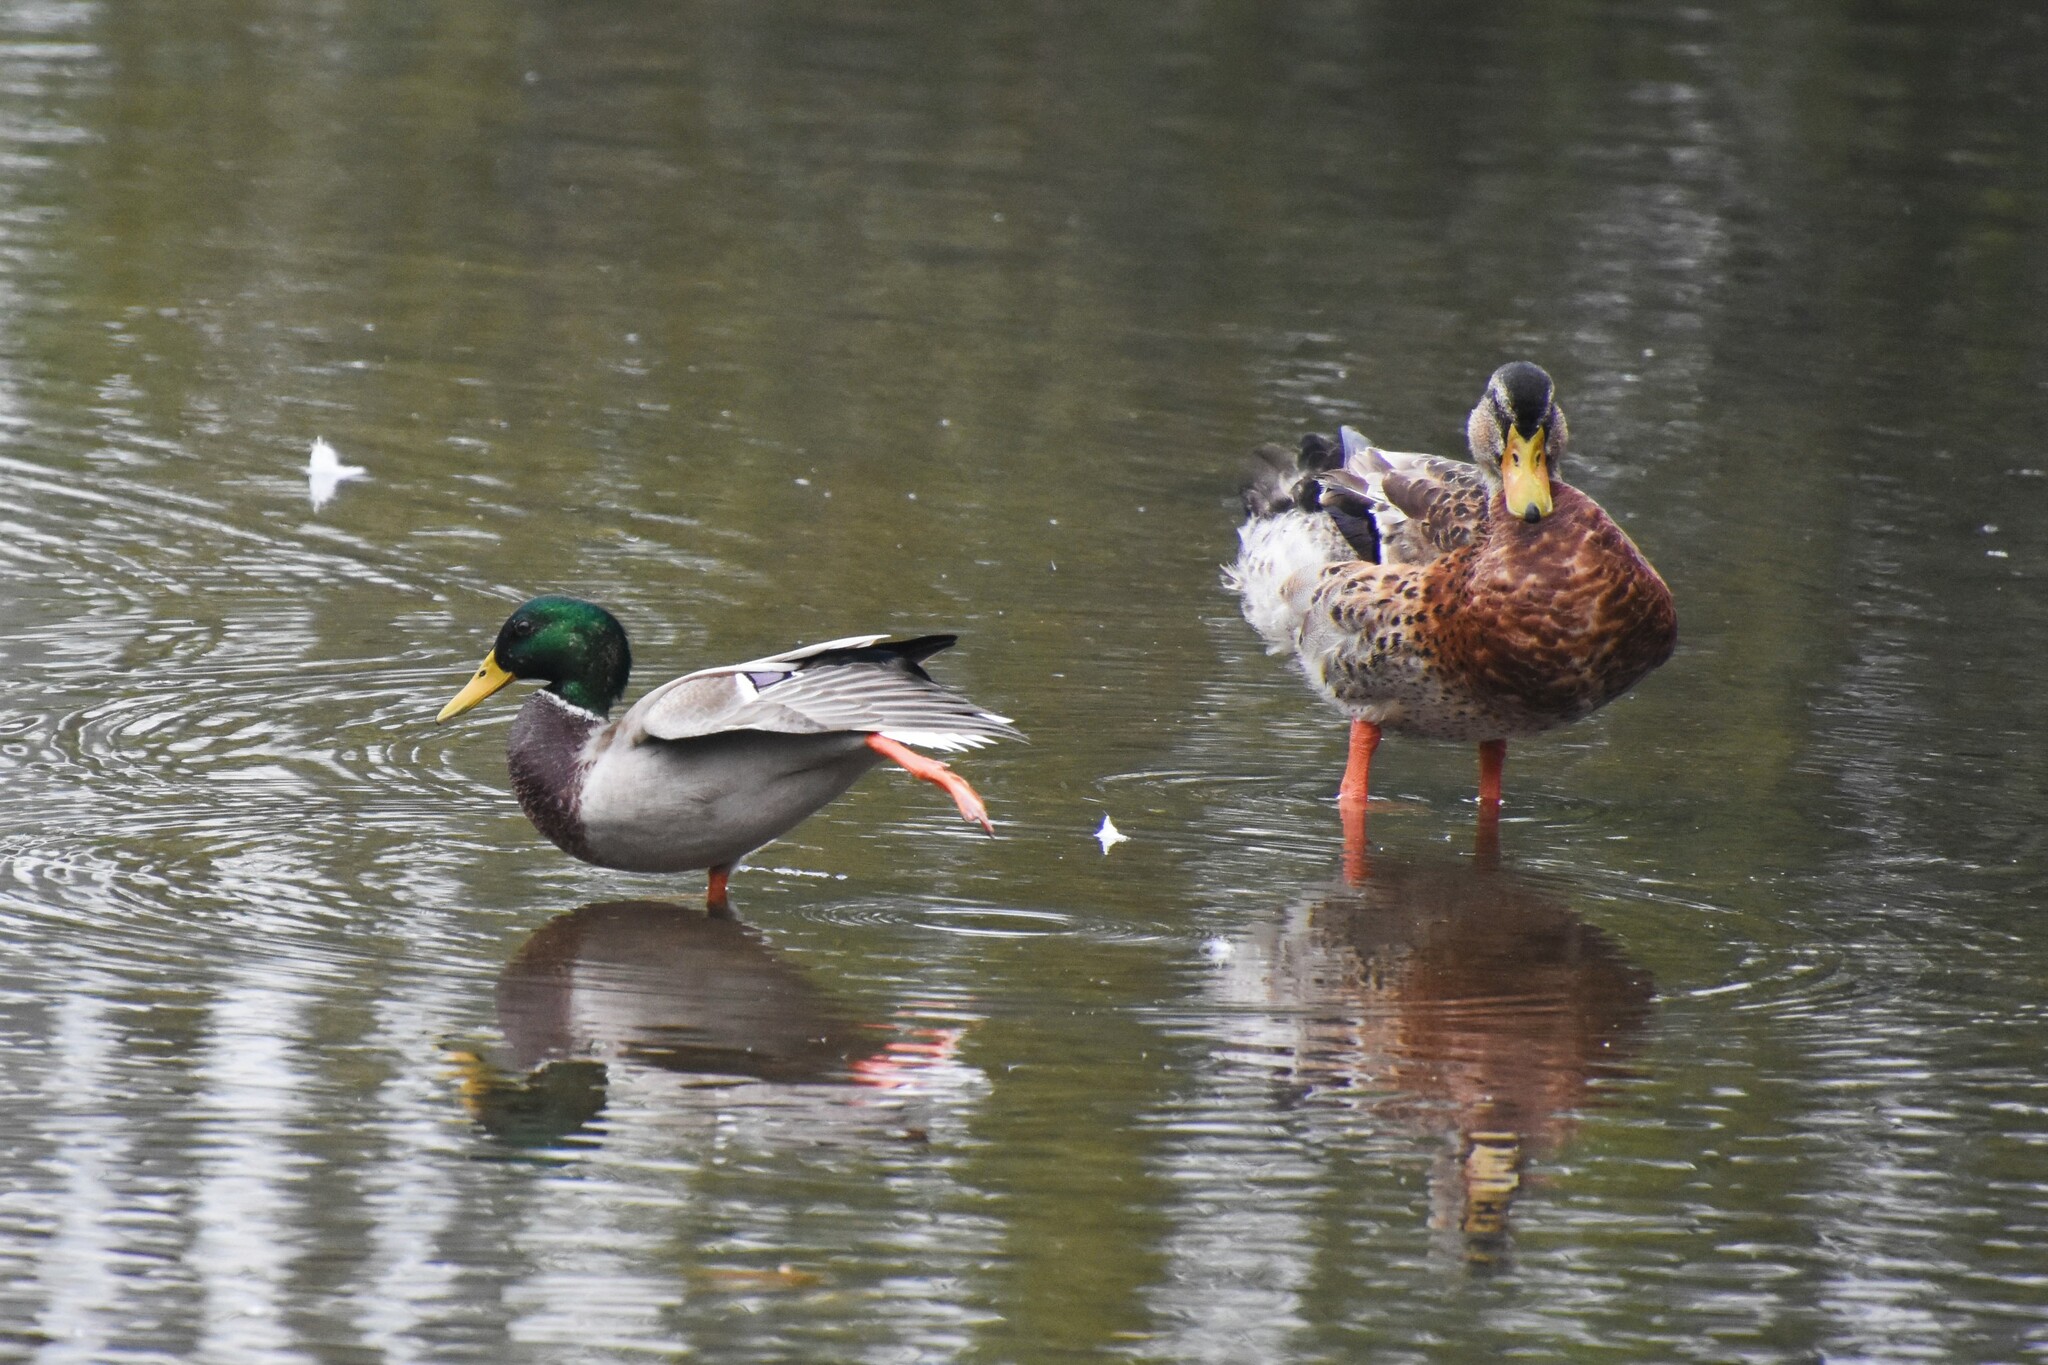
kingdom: Animalia
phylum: Chordata
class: Aves
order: Anseriformes
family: Anatidae
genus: Anas
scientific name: Anas platyrhynchos
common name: Mallard
